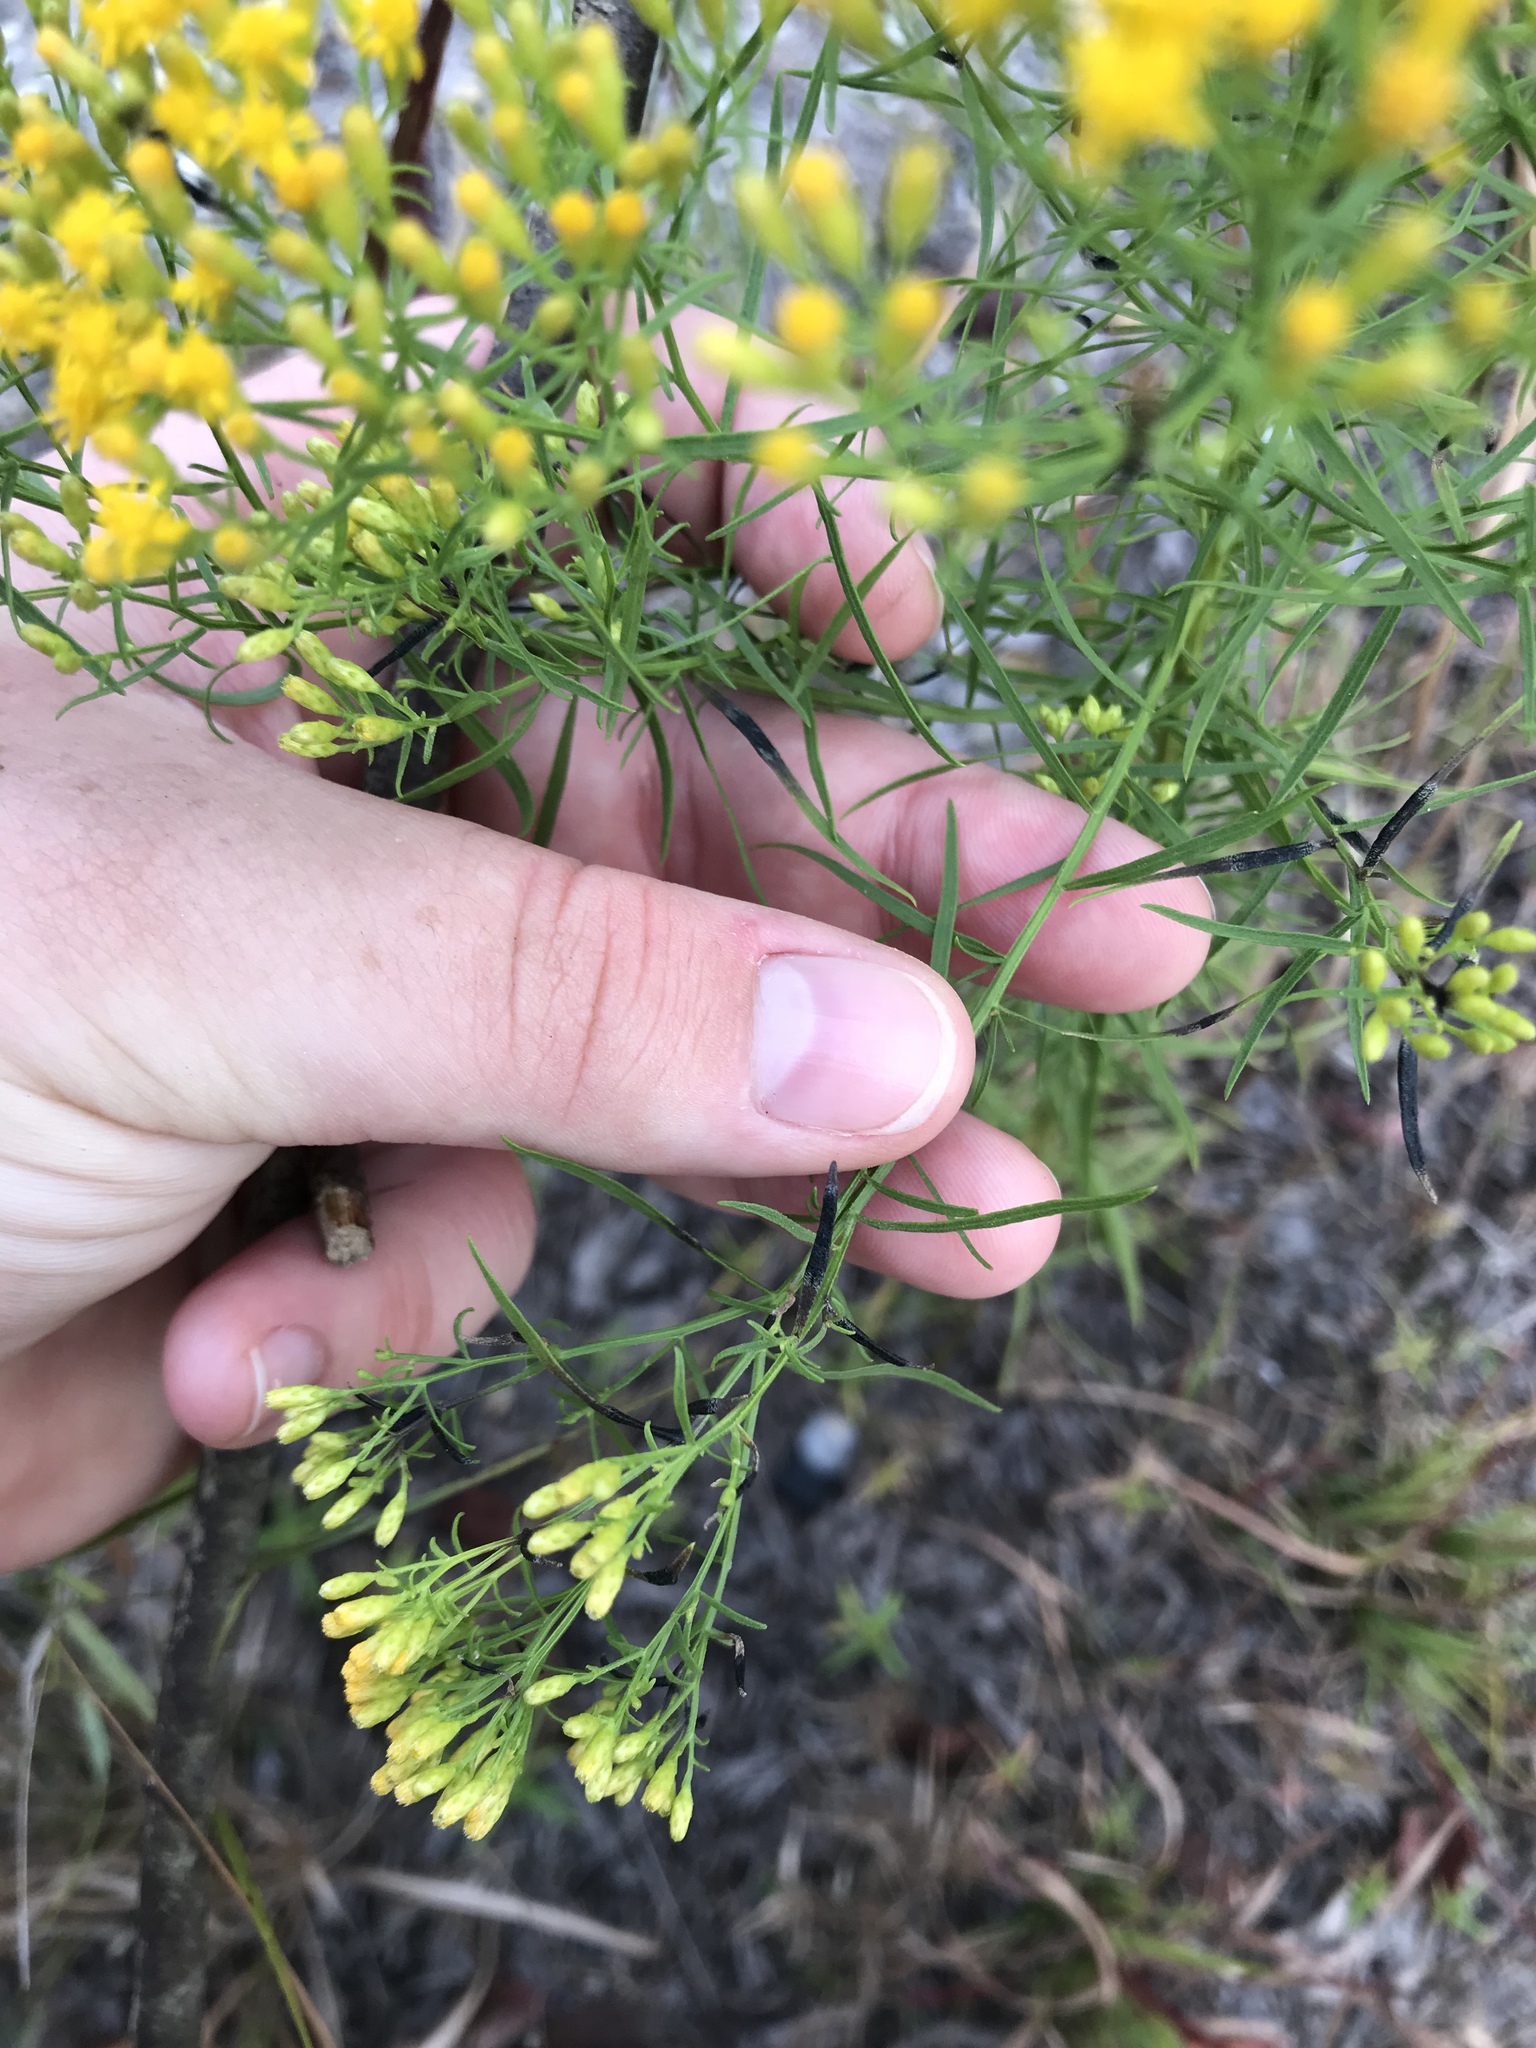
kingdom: Plantae
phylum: Tracheophyta
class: Magnoliopsida
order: Asterales
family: Asteraceae
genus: Euthamia
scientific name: Euthamia caroliniana
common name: Coastal plain goldentop
